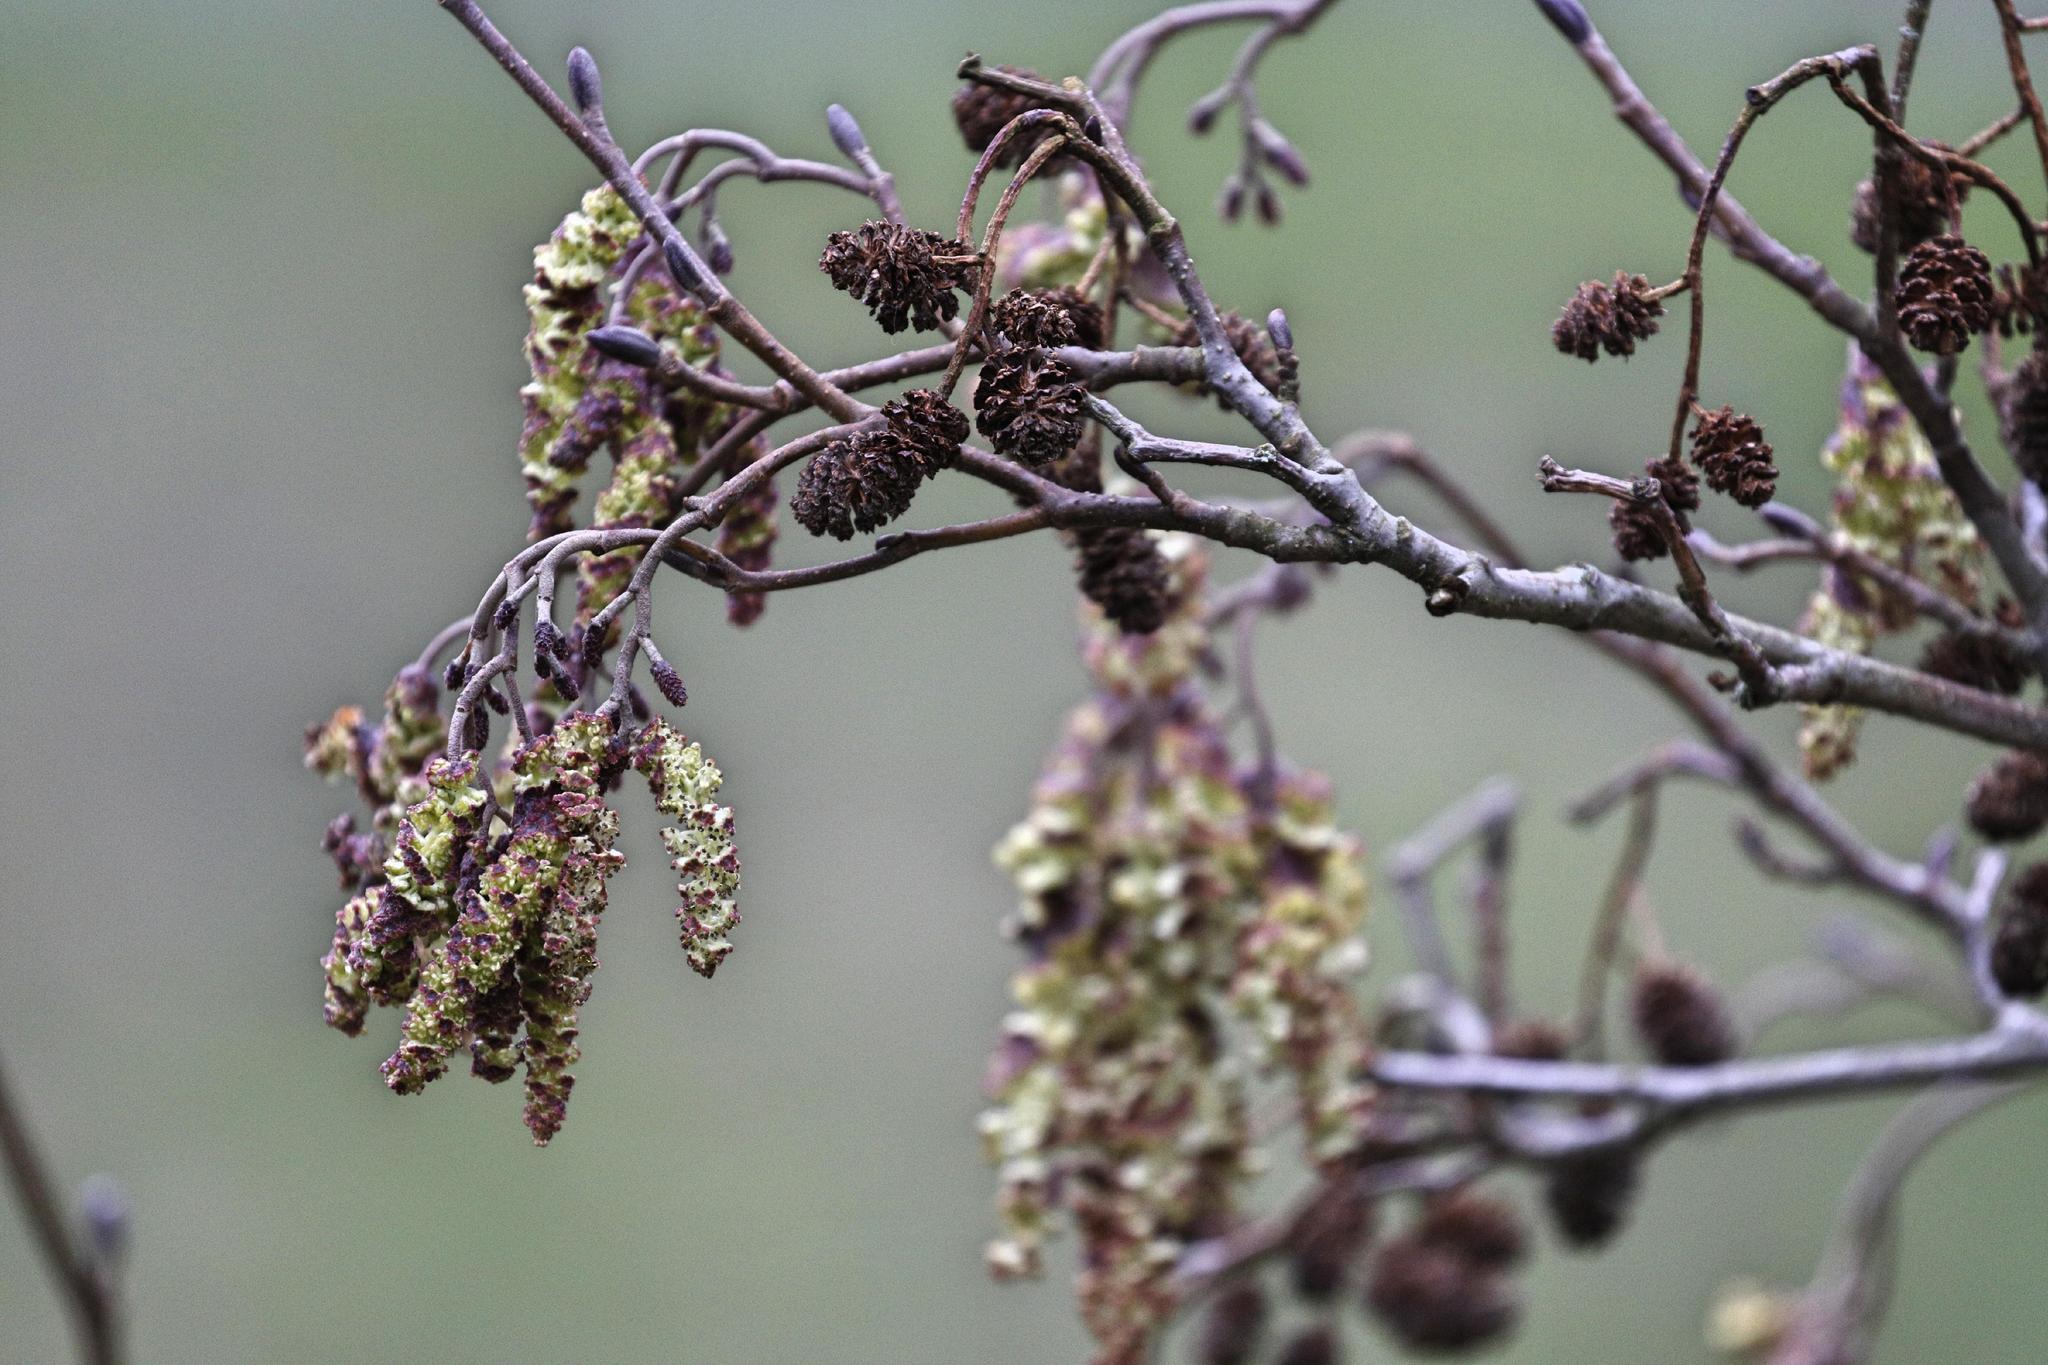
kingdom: Plantae
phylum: Tracheophyta
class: Magnoliopsida
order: Fagales
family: Betulaceae
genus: Alnus
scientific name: Alnus glutinosa
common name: Black alder
